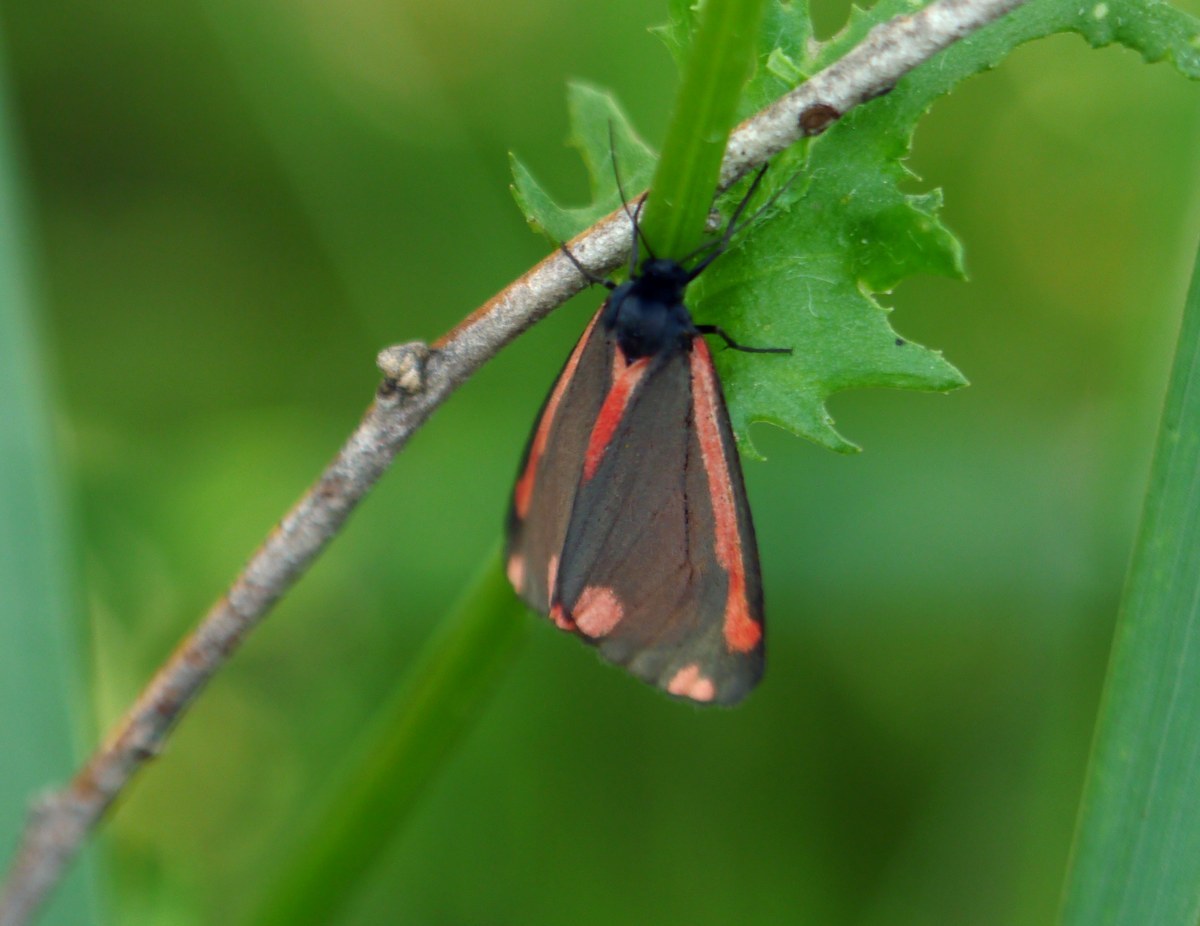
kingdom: Animalia
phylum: Arthropoda
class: Insecta
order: Lepidoptera
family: Erebidae
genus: Tyria
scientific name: Tyria jacobaeae
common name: Cinnabar
